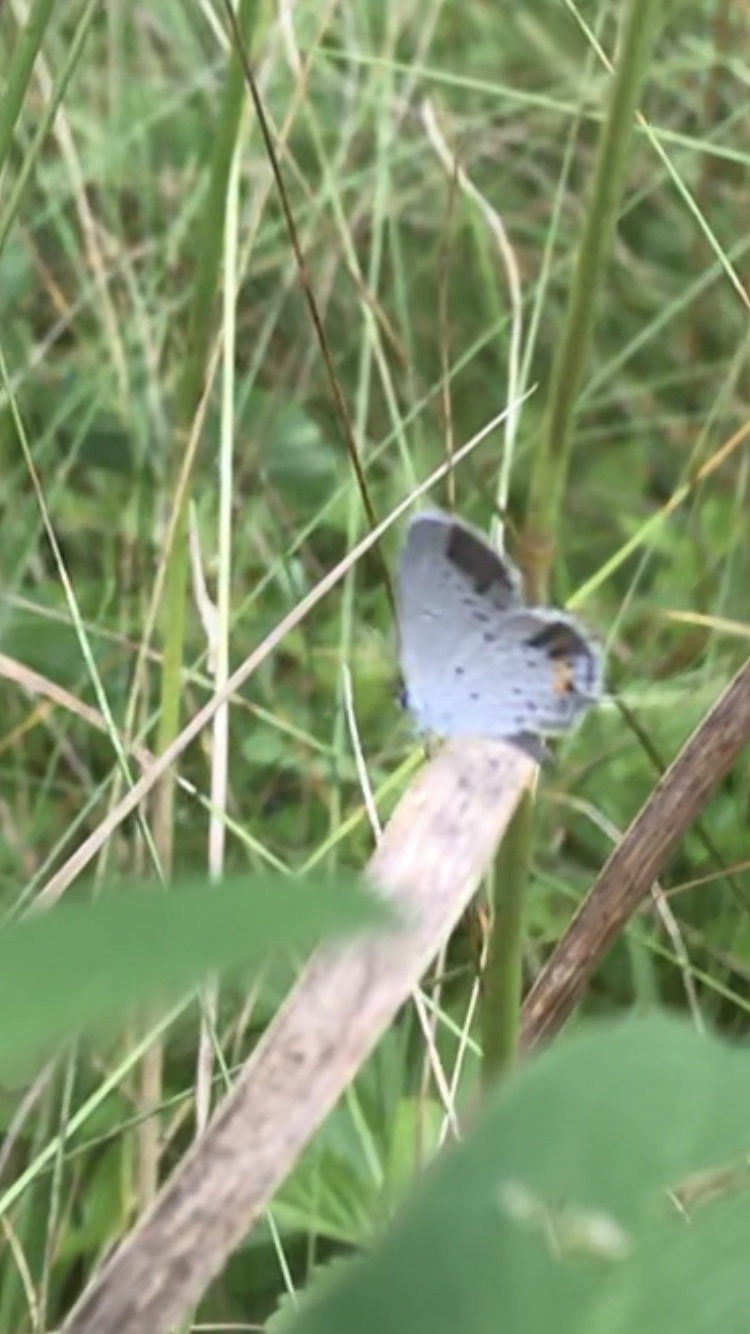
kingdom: Animalia
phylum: Arthropoda
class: Insecta
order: Lepidoptera
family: Lycaenidae
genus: Elkalyce
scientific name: Elkalyce comyntas
